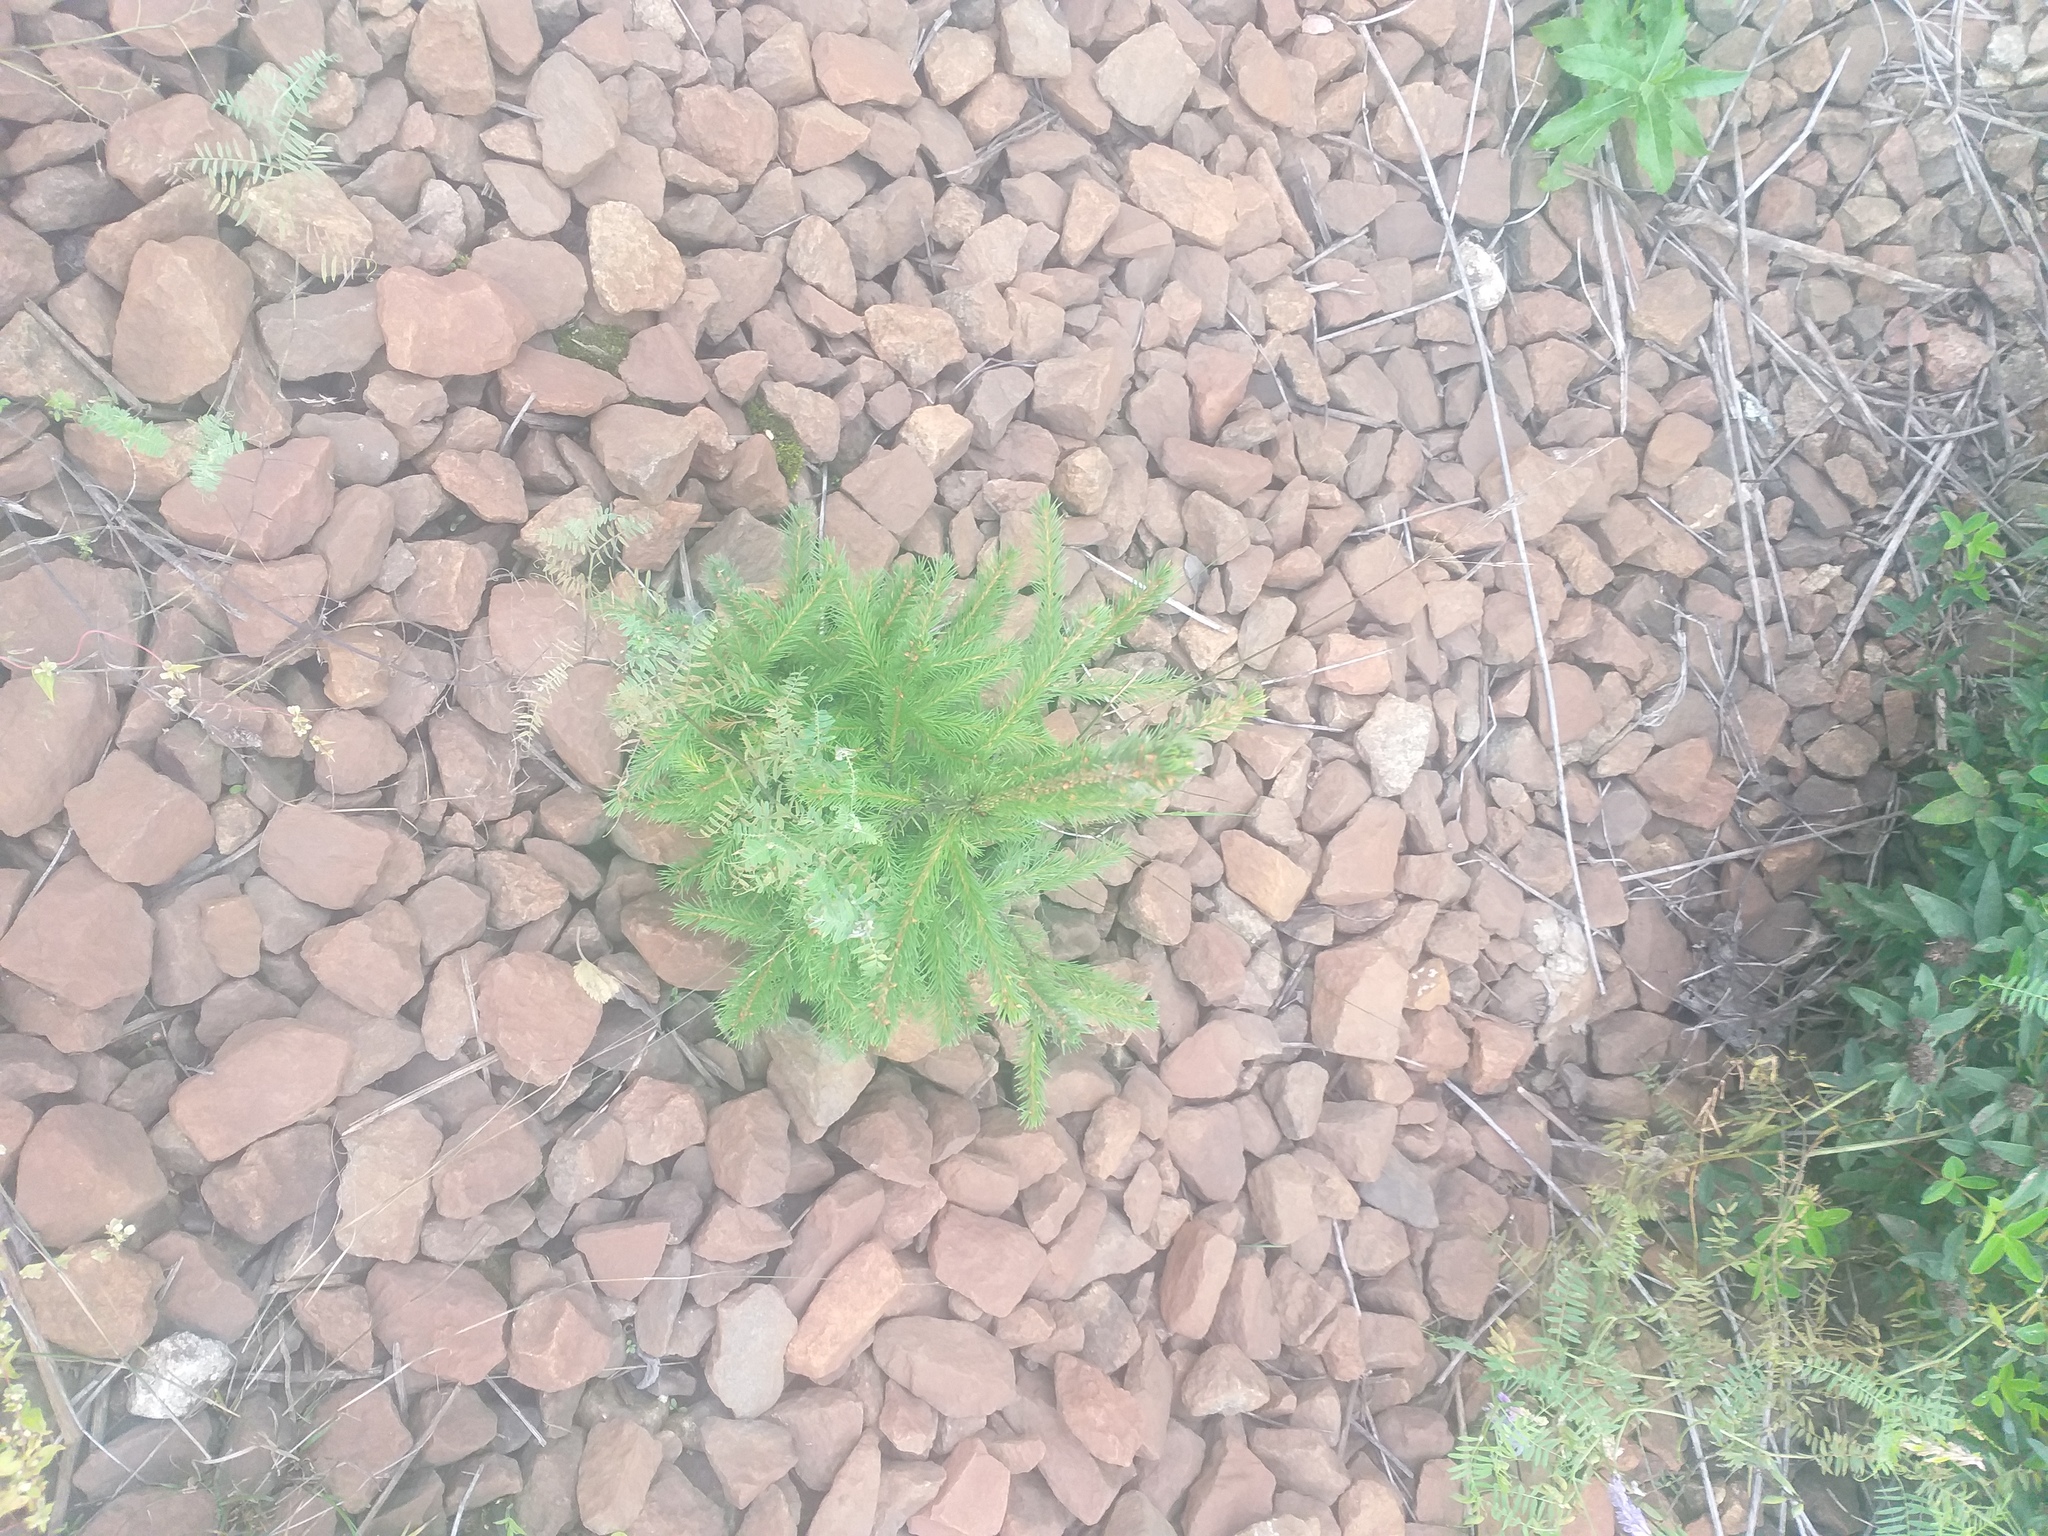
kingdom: Plantae
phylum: Tracheophyta
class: Pinopsida
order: Pinales
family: Pinaceae
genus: Picea
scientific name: Picea abies
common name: Norway spruce
